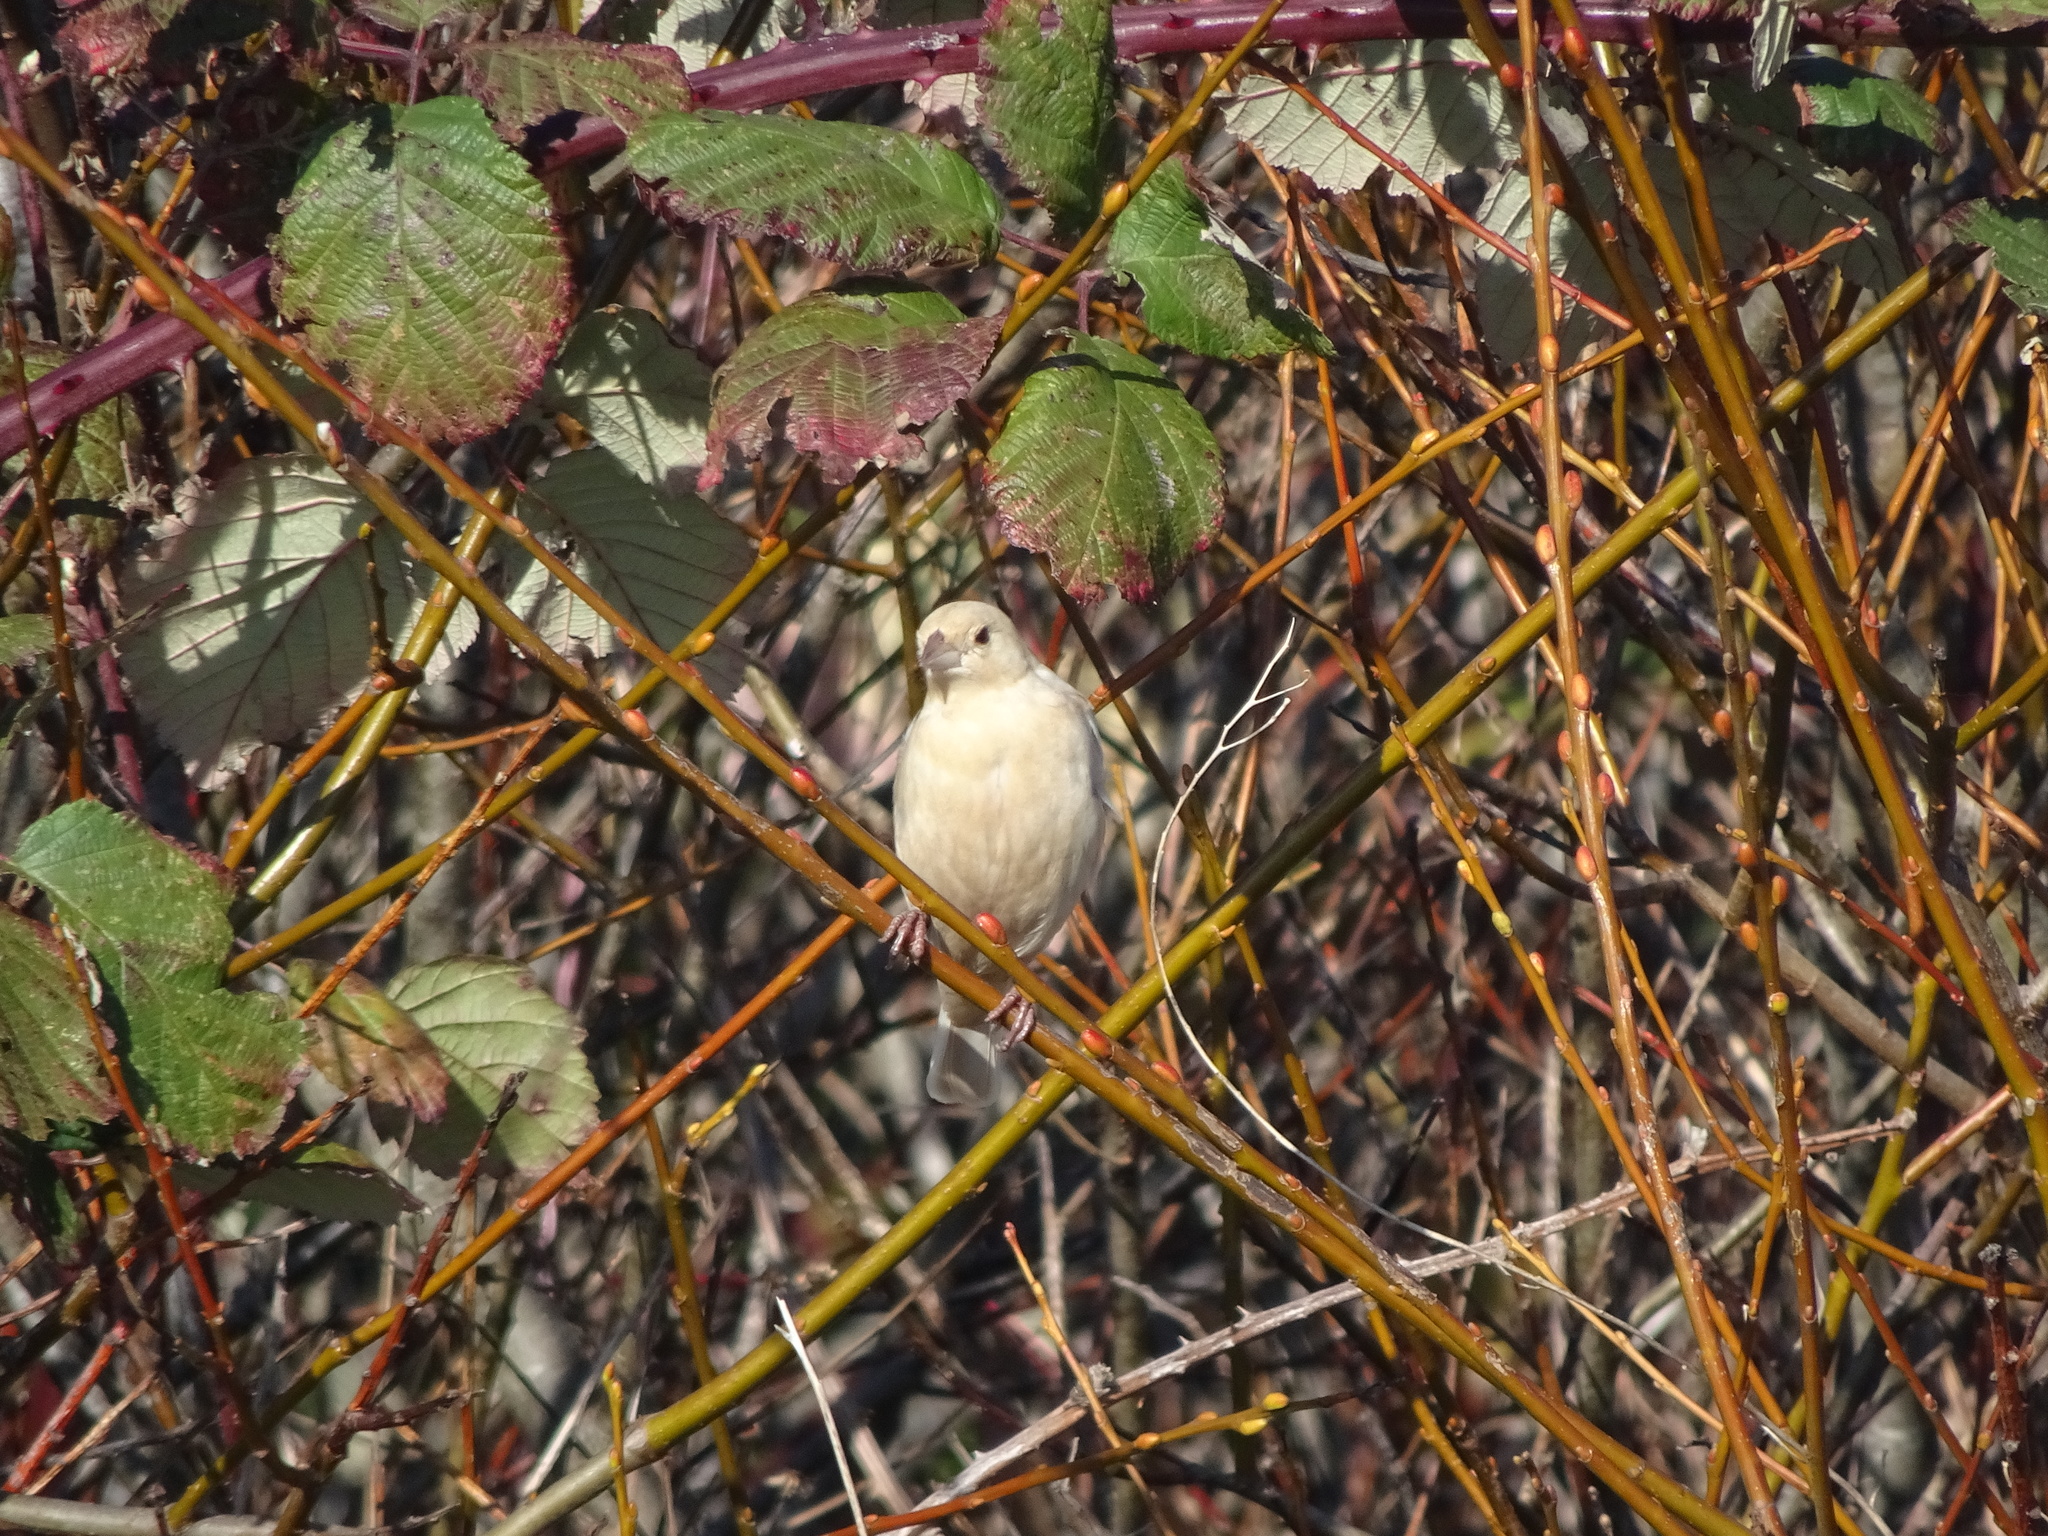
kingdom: Animalia
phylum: Chordata
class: Aves
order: Passeriformes
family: Icteridae
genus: Molothrus
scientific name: Molothrus ater
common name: Brown-headed cowbird
